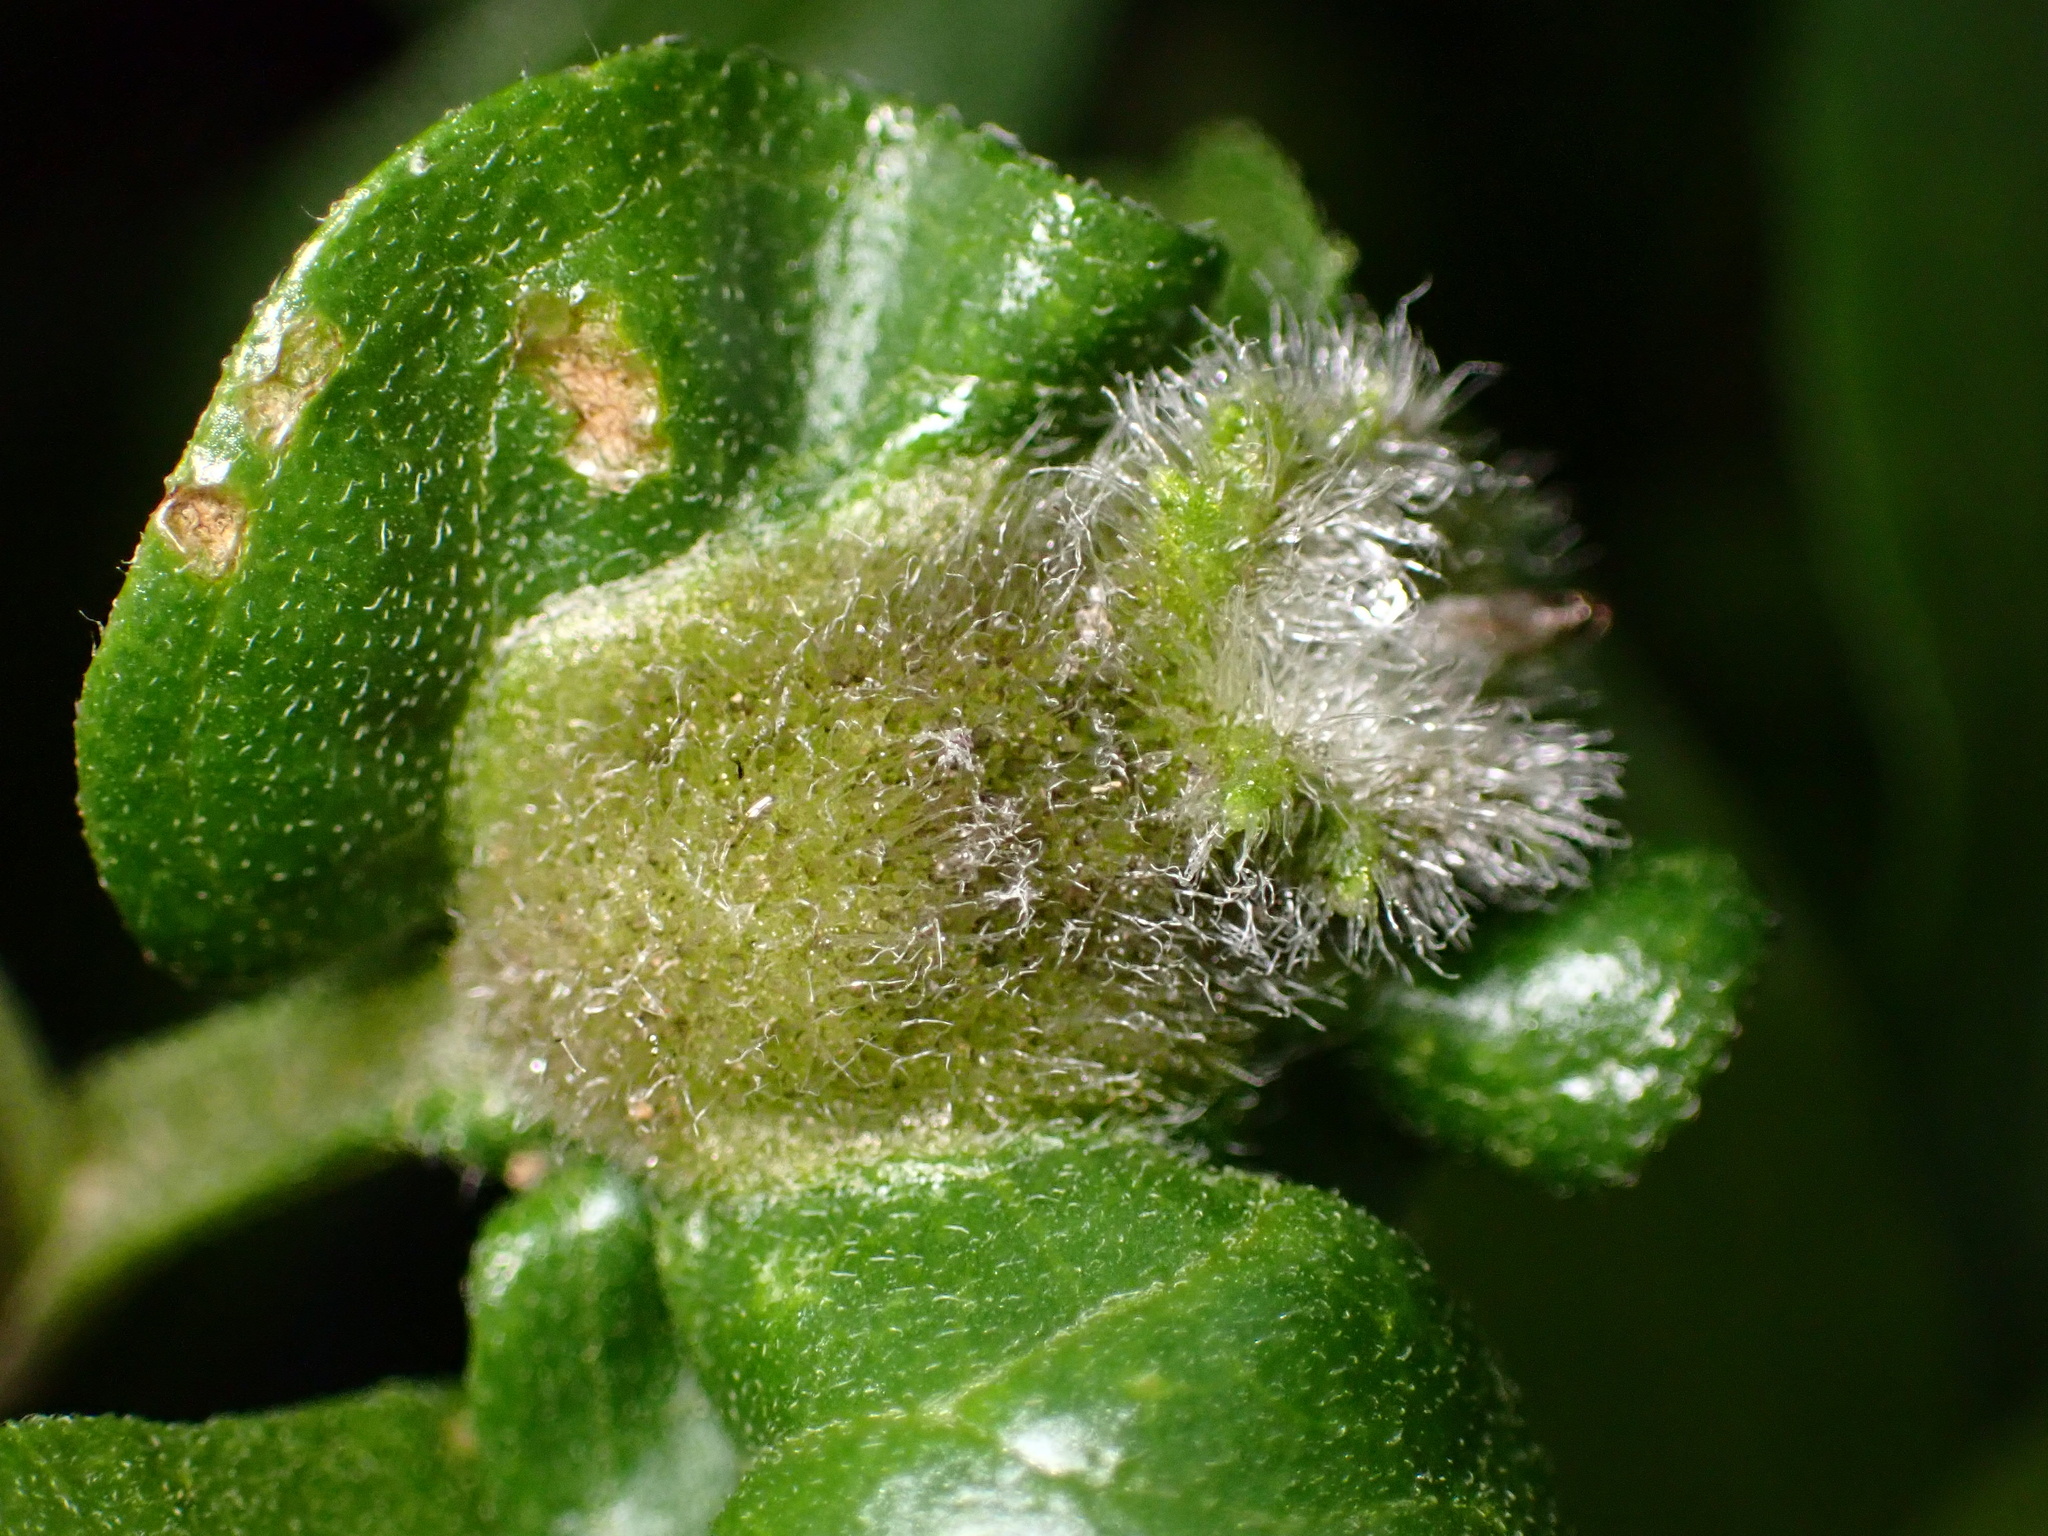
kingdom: Animalia
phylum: Arthropoda
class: Insecta
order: Diptera
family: Cecidomyiidae
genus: Asphondylia
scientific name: Asphondylia enceliae
